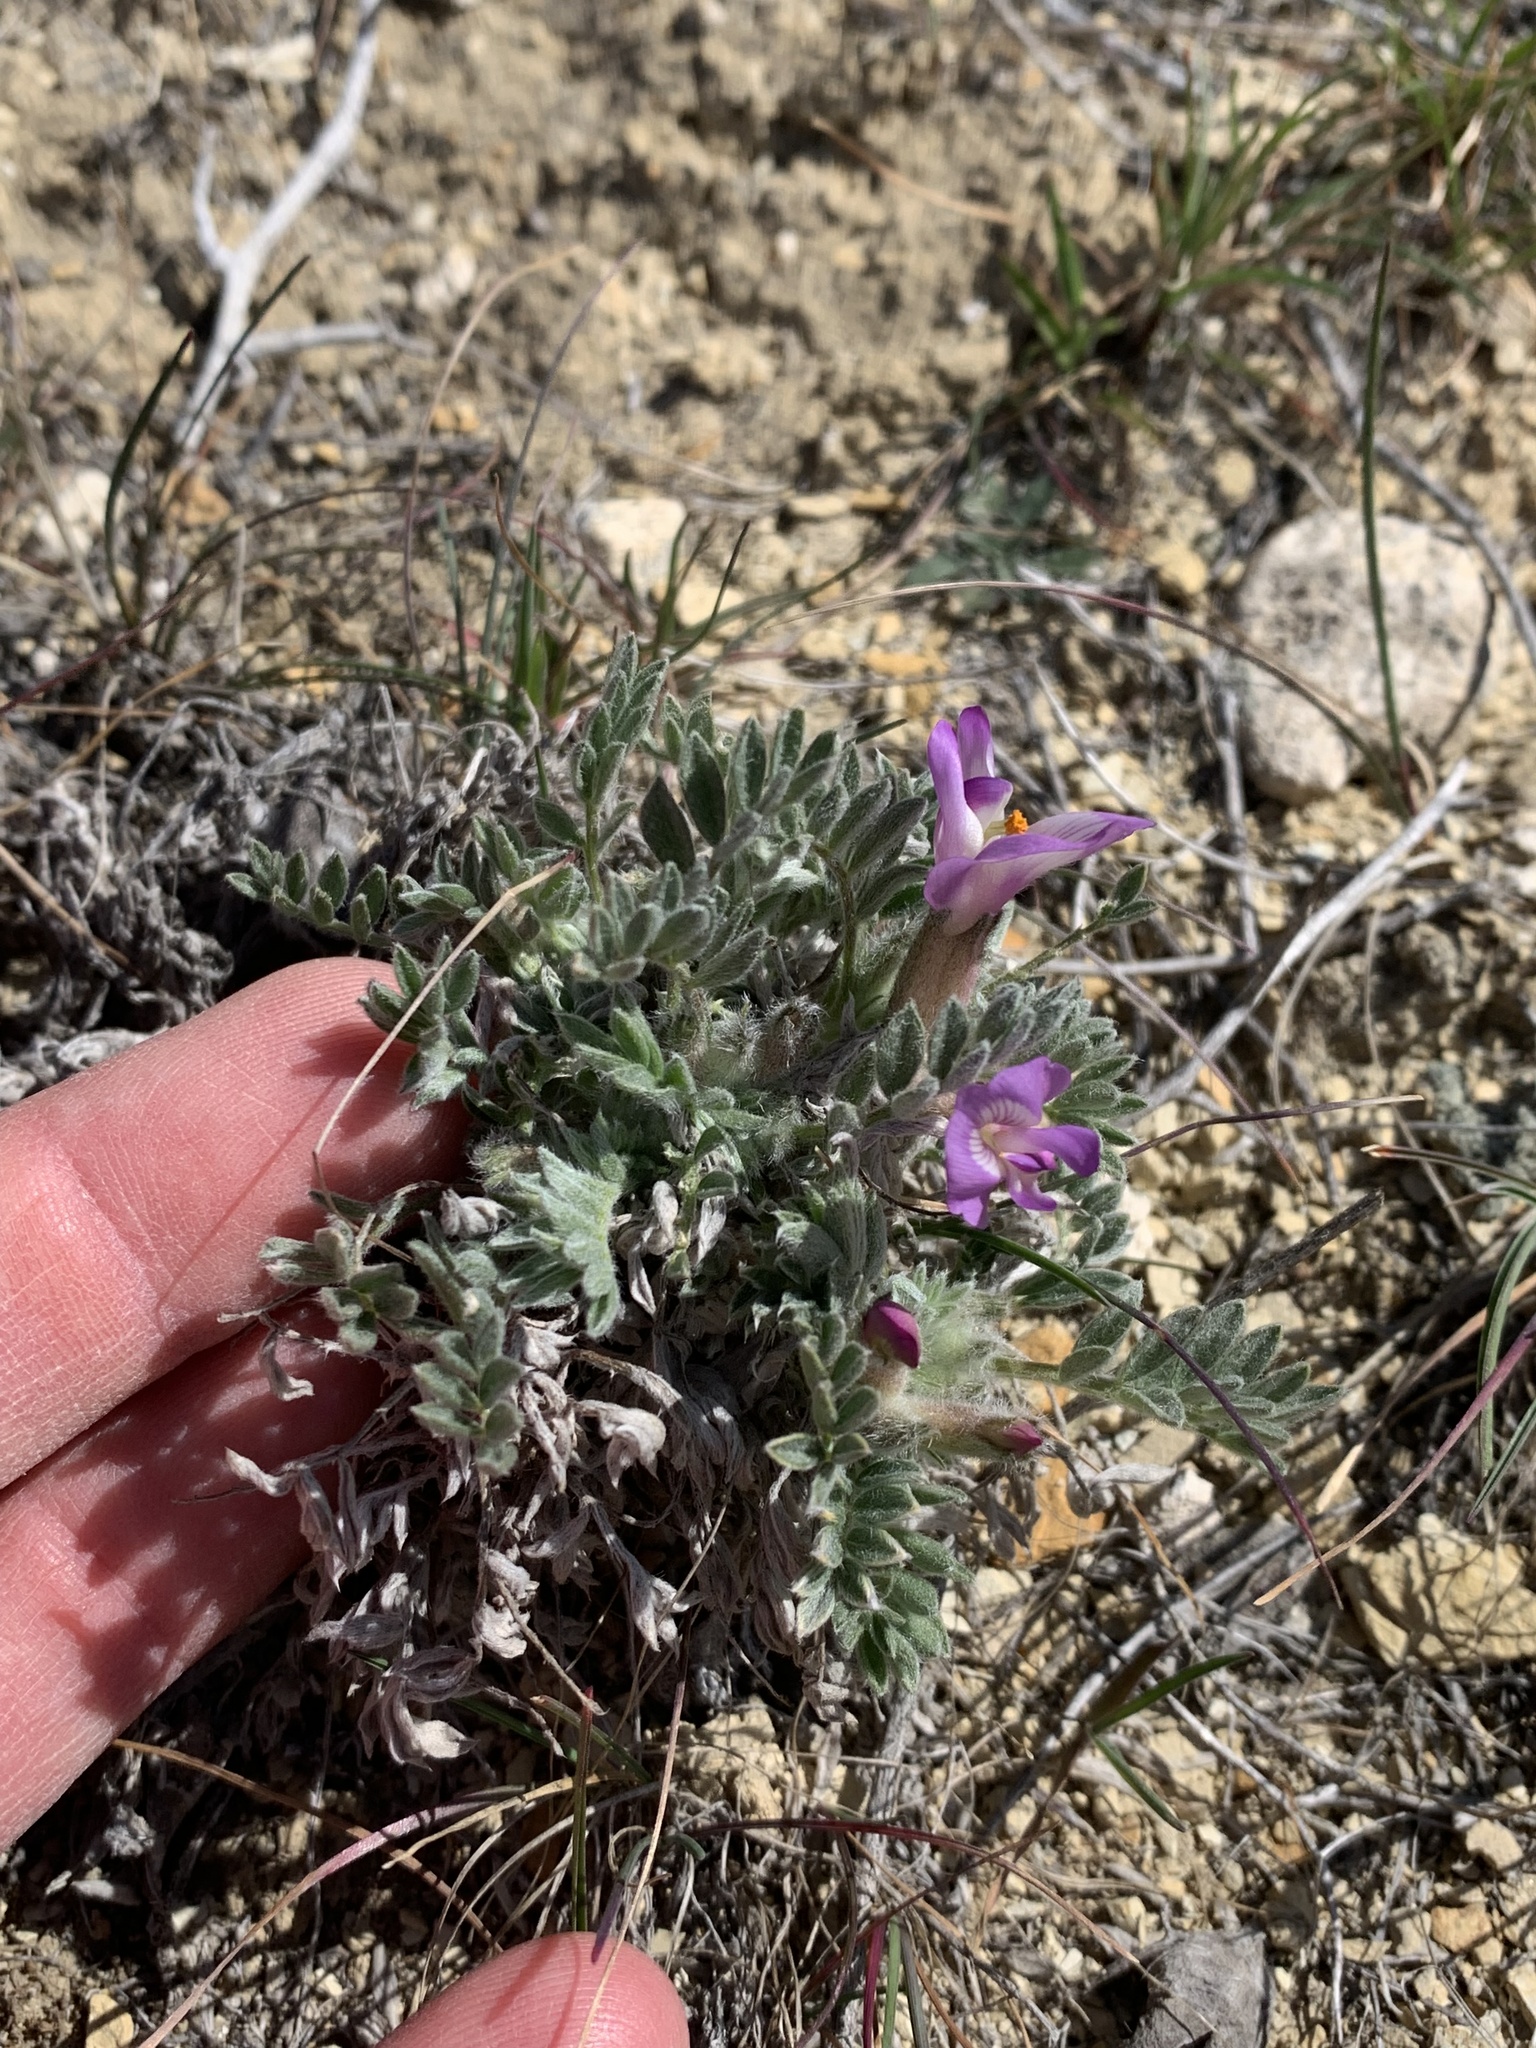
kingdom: Plantae
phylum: Tracheophyta
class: Magnoliopsida
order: Fabales
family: Fabaceae
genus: Astragalus
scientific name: Astragalus purshii
